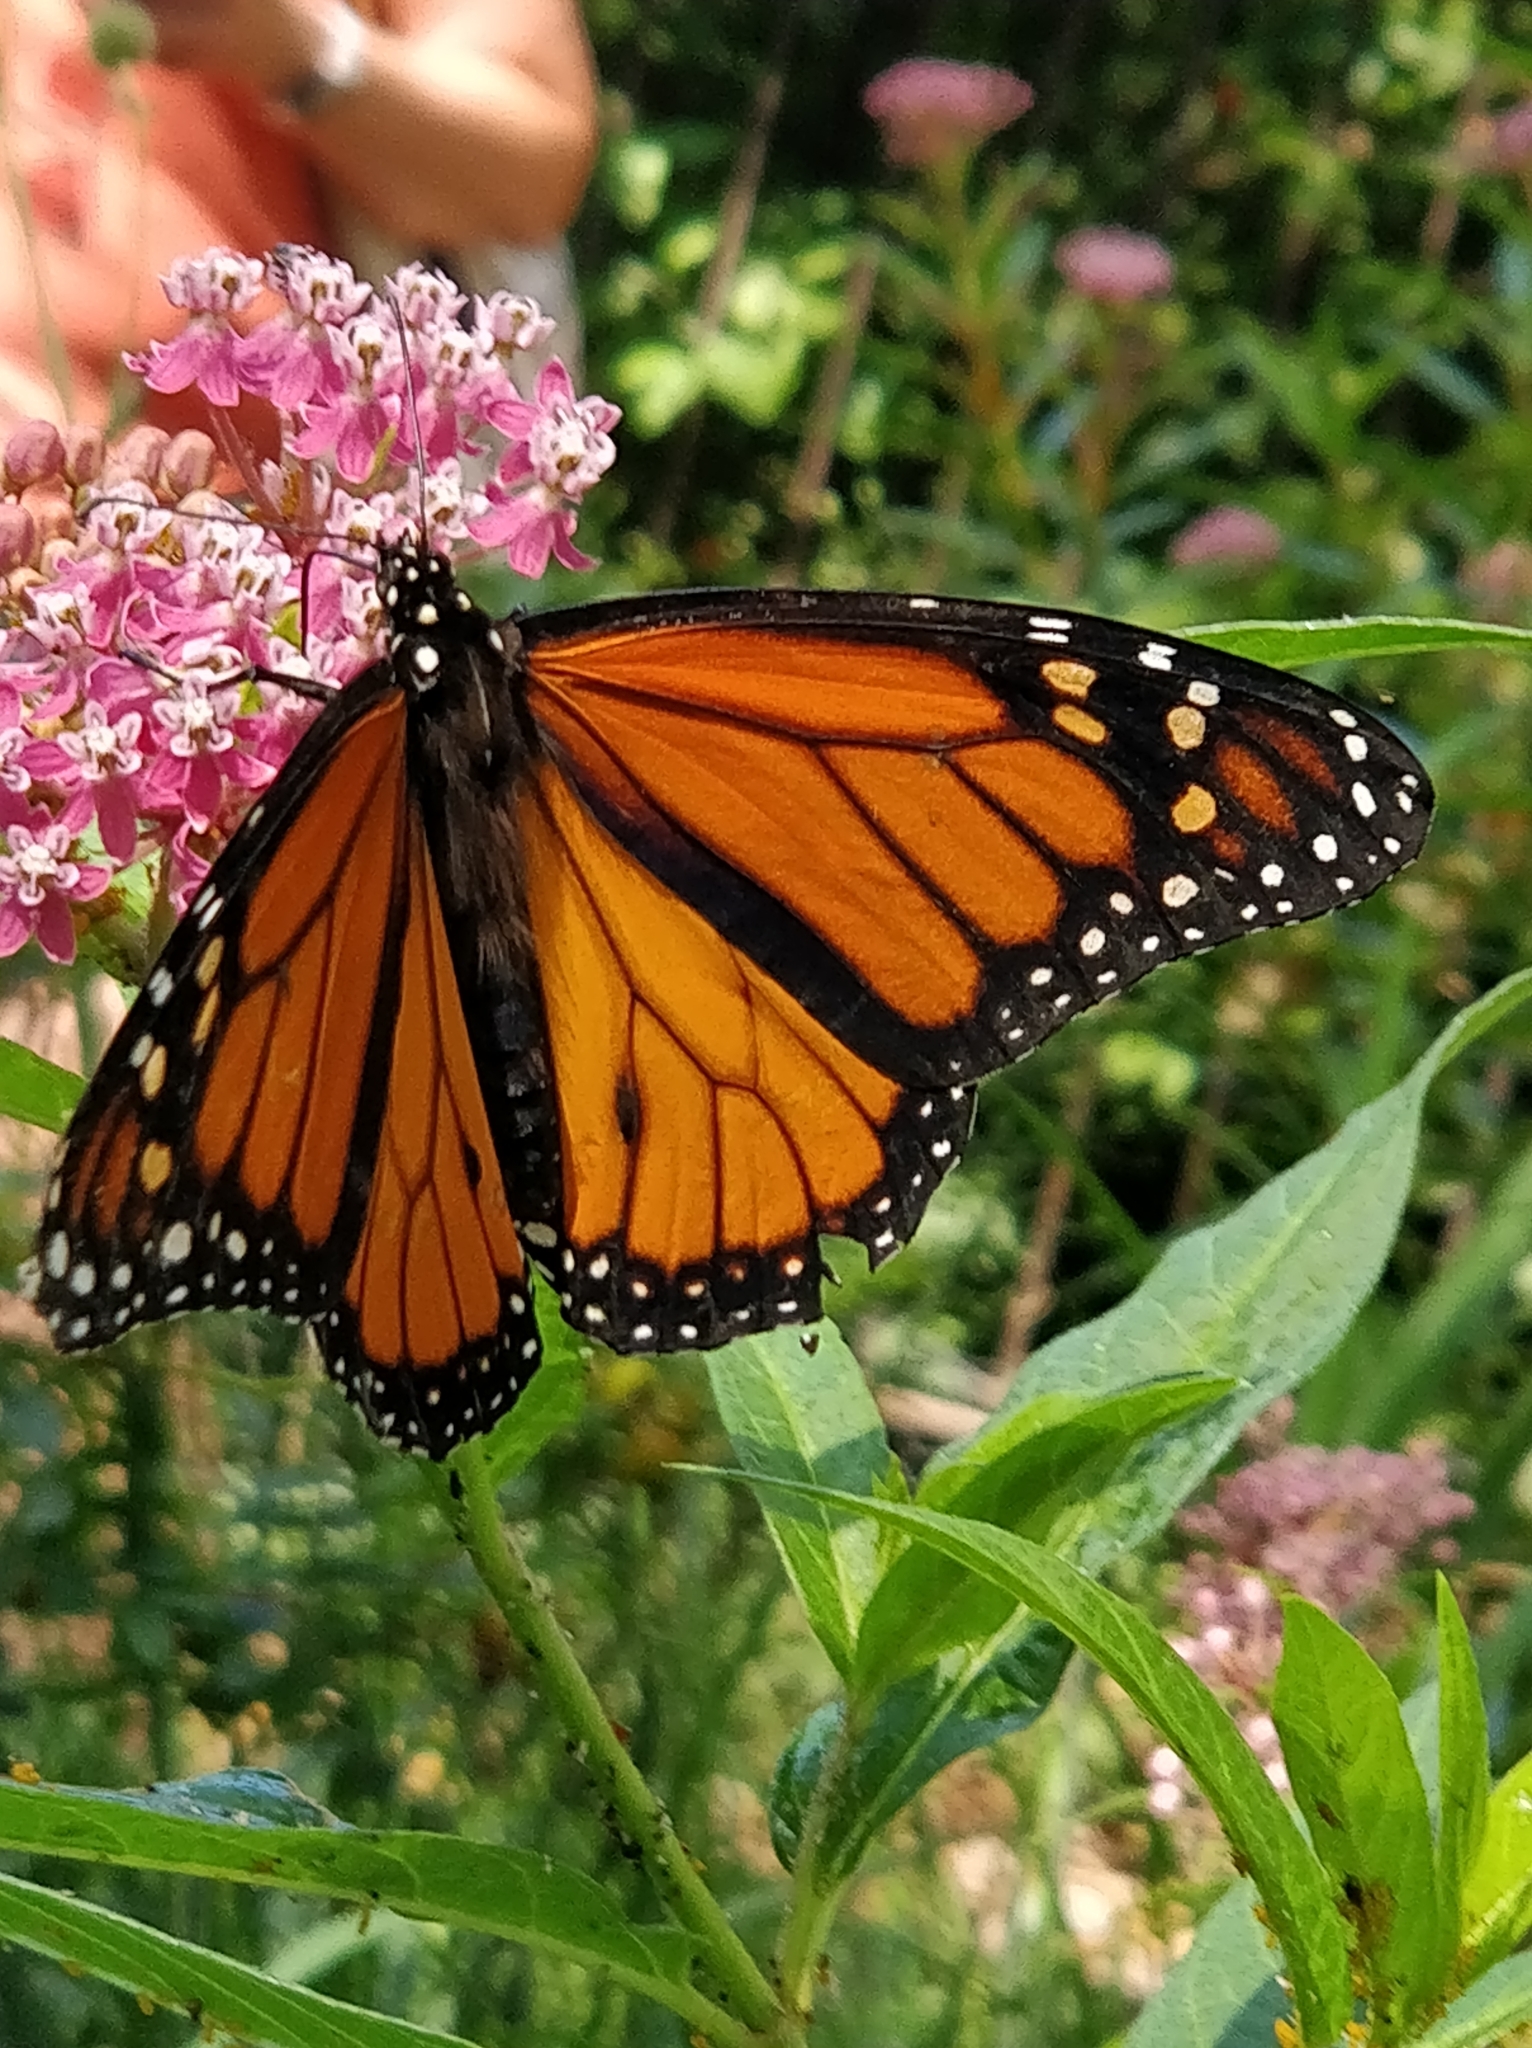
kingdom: Animalia
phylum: Arthropoda
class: Insecta
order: Lepidoptera
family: Nymphalidae
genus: Danaus
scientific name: Danaus plexippus
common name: Monarch
